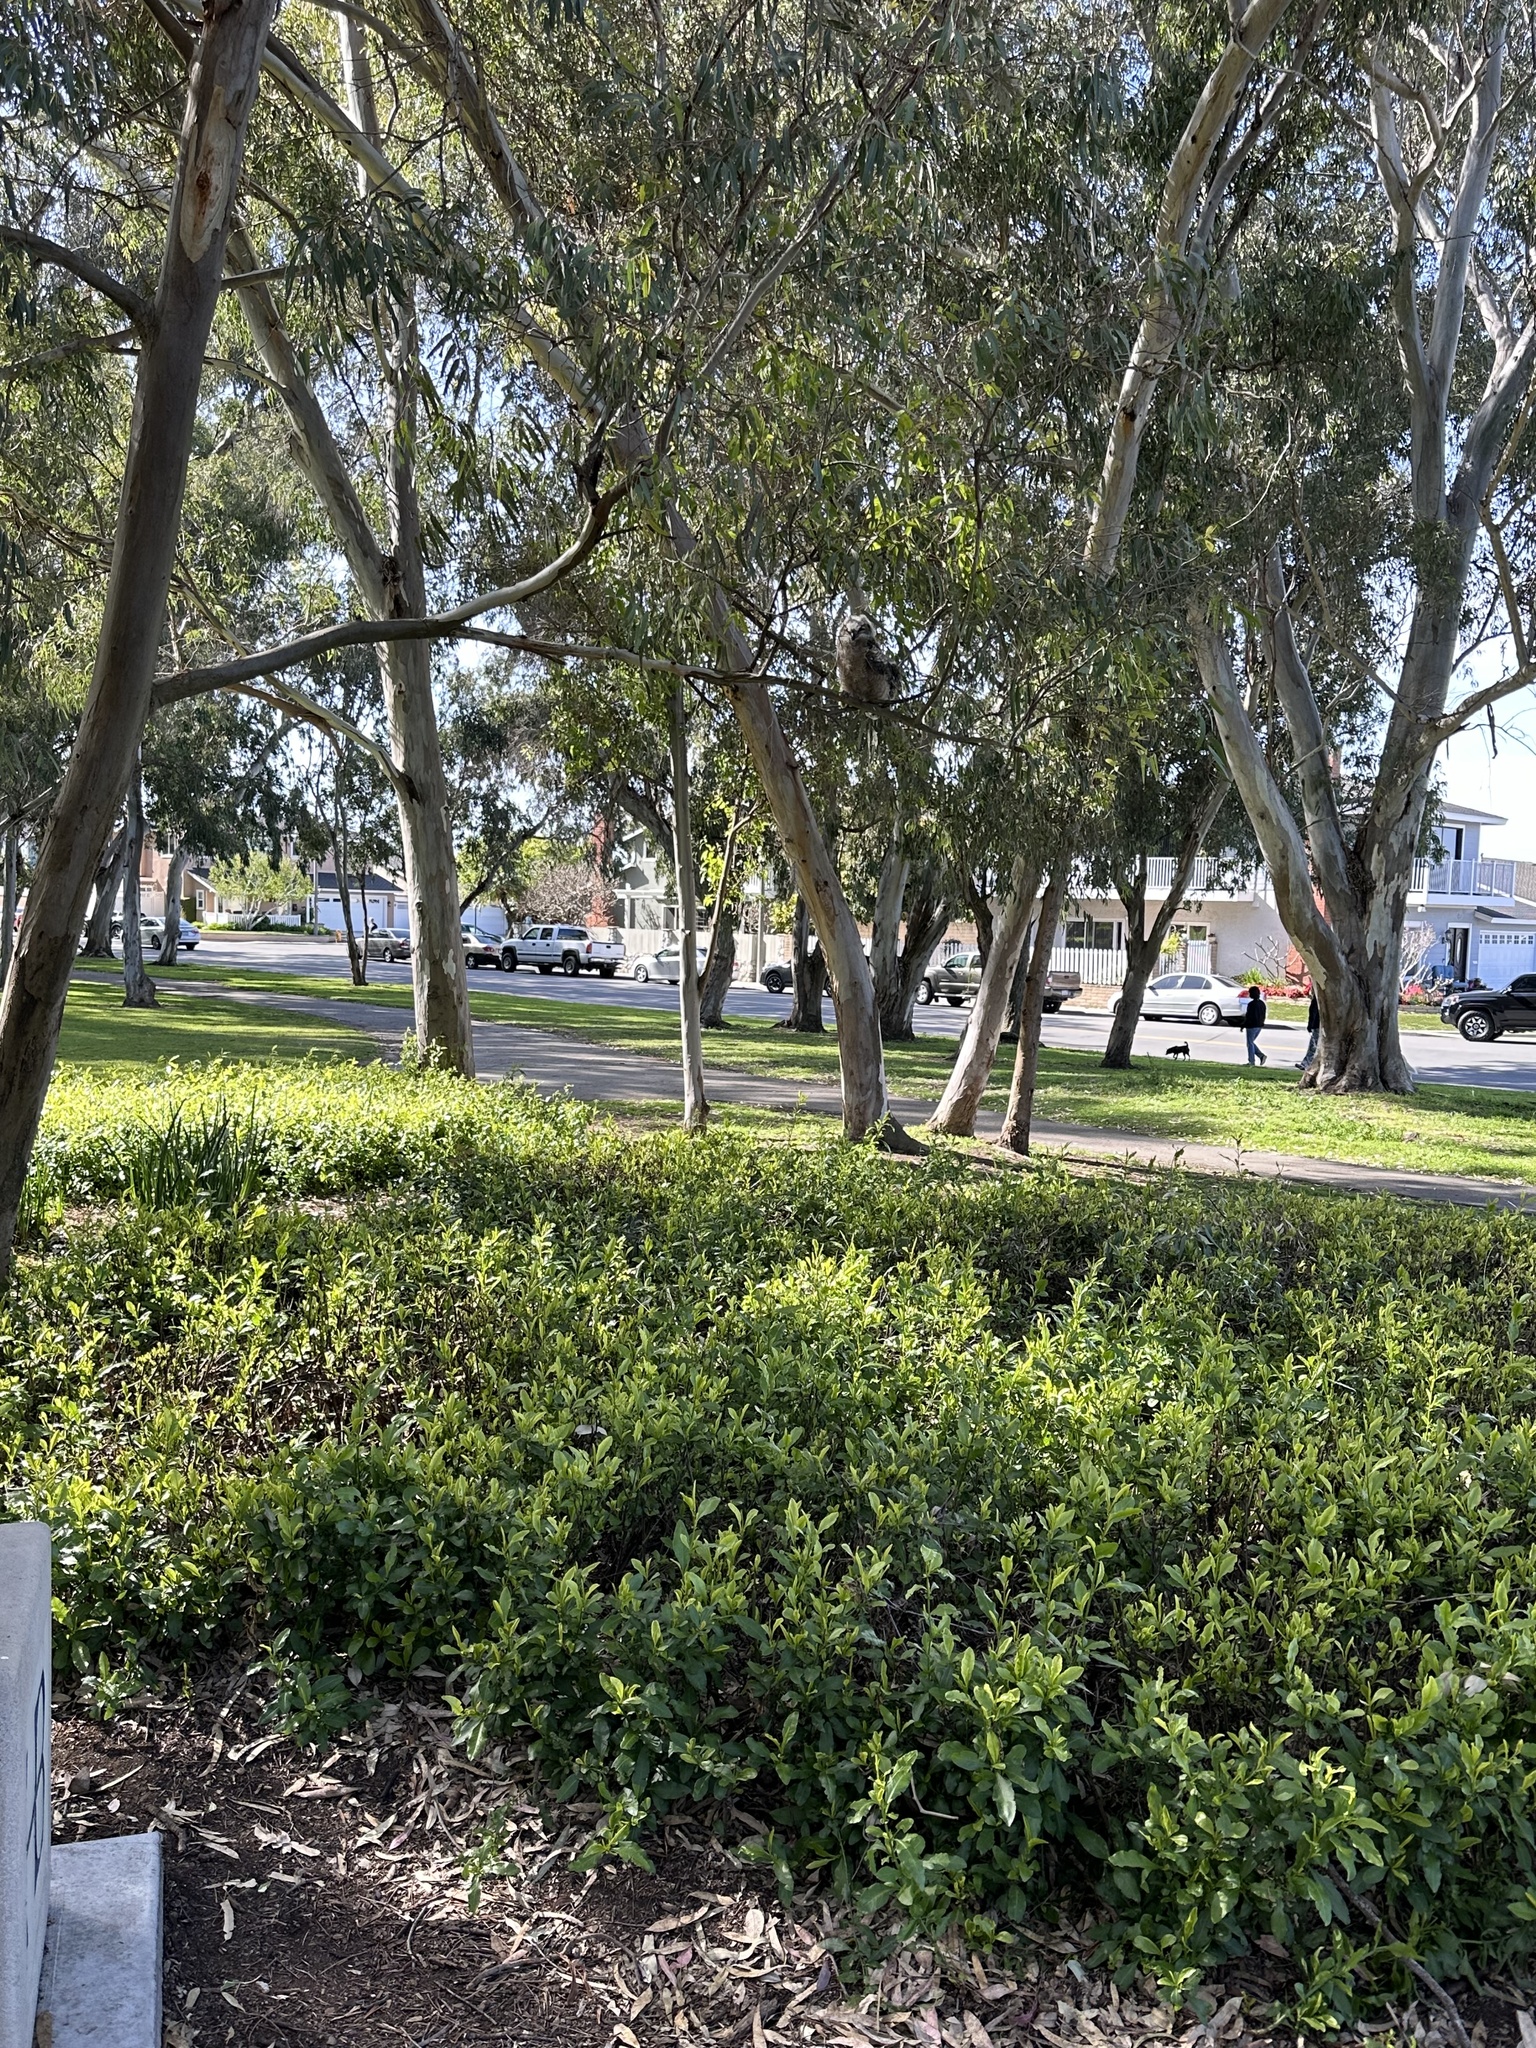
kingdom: Animalia
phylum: Chordata
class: Aves
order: Strigiformes
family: Strigidae
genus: Bubo
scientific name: Bubo virginianus
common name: Great horned owl
